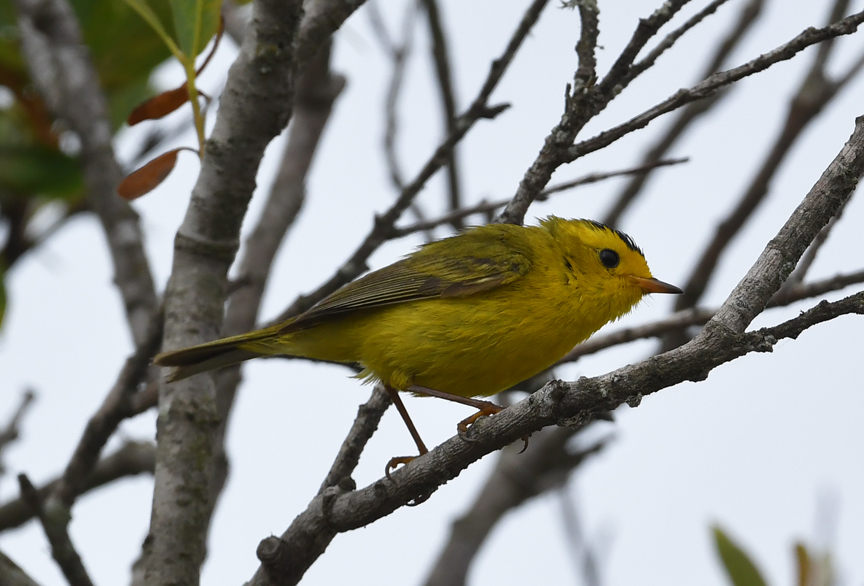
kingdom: Animalia
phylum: Chordata
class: Aves
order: Passeriformes
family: Parulidae
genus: Cardellina
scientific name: Cardellina pusilla
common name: Wilson's warbler
